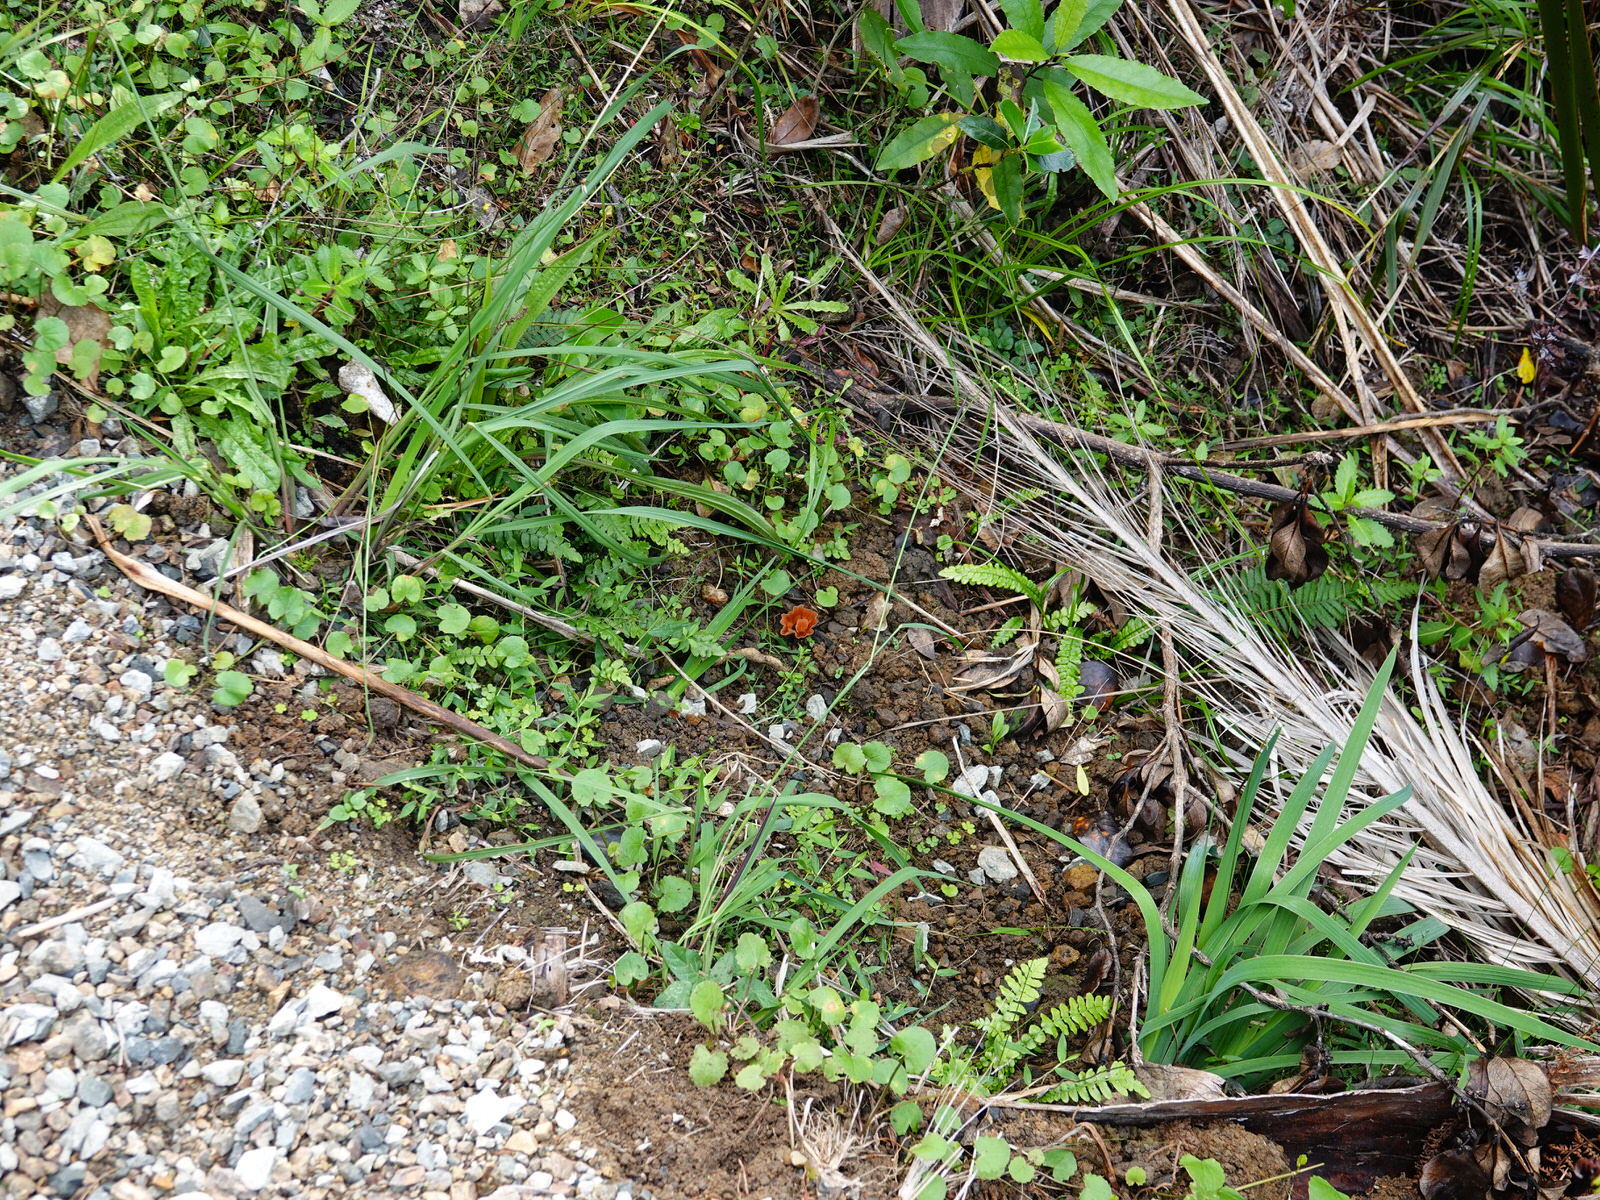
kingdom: Fungi
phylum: Basidiomycota
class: Agaricomycetes
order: Polyporales
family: Podoscyphaceae
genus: Podoscypha
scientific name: Podoscypha petalodes
